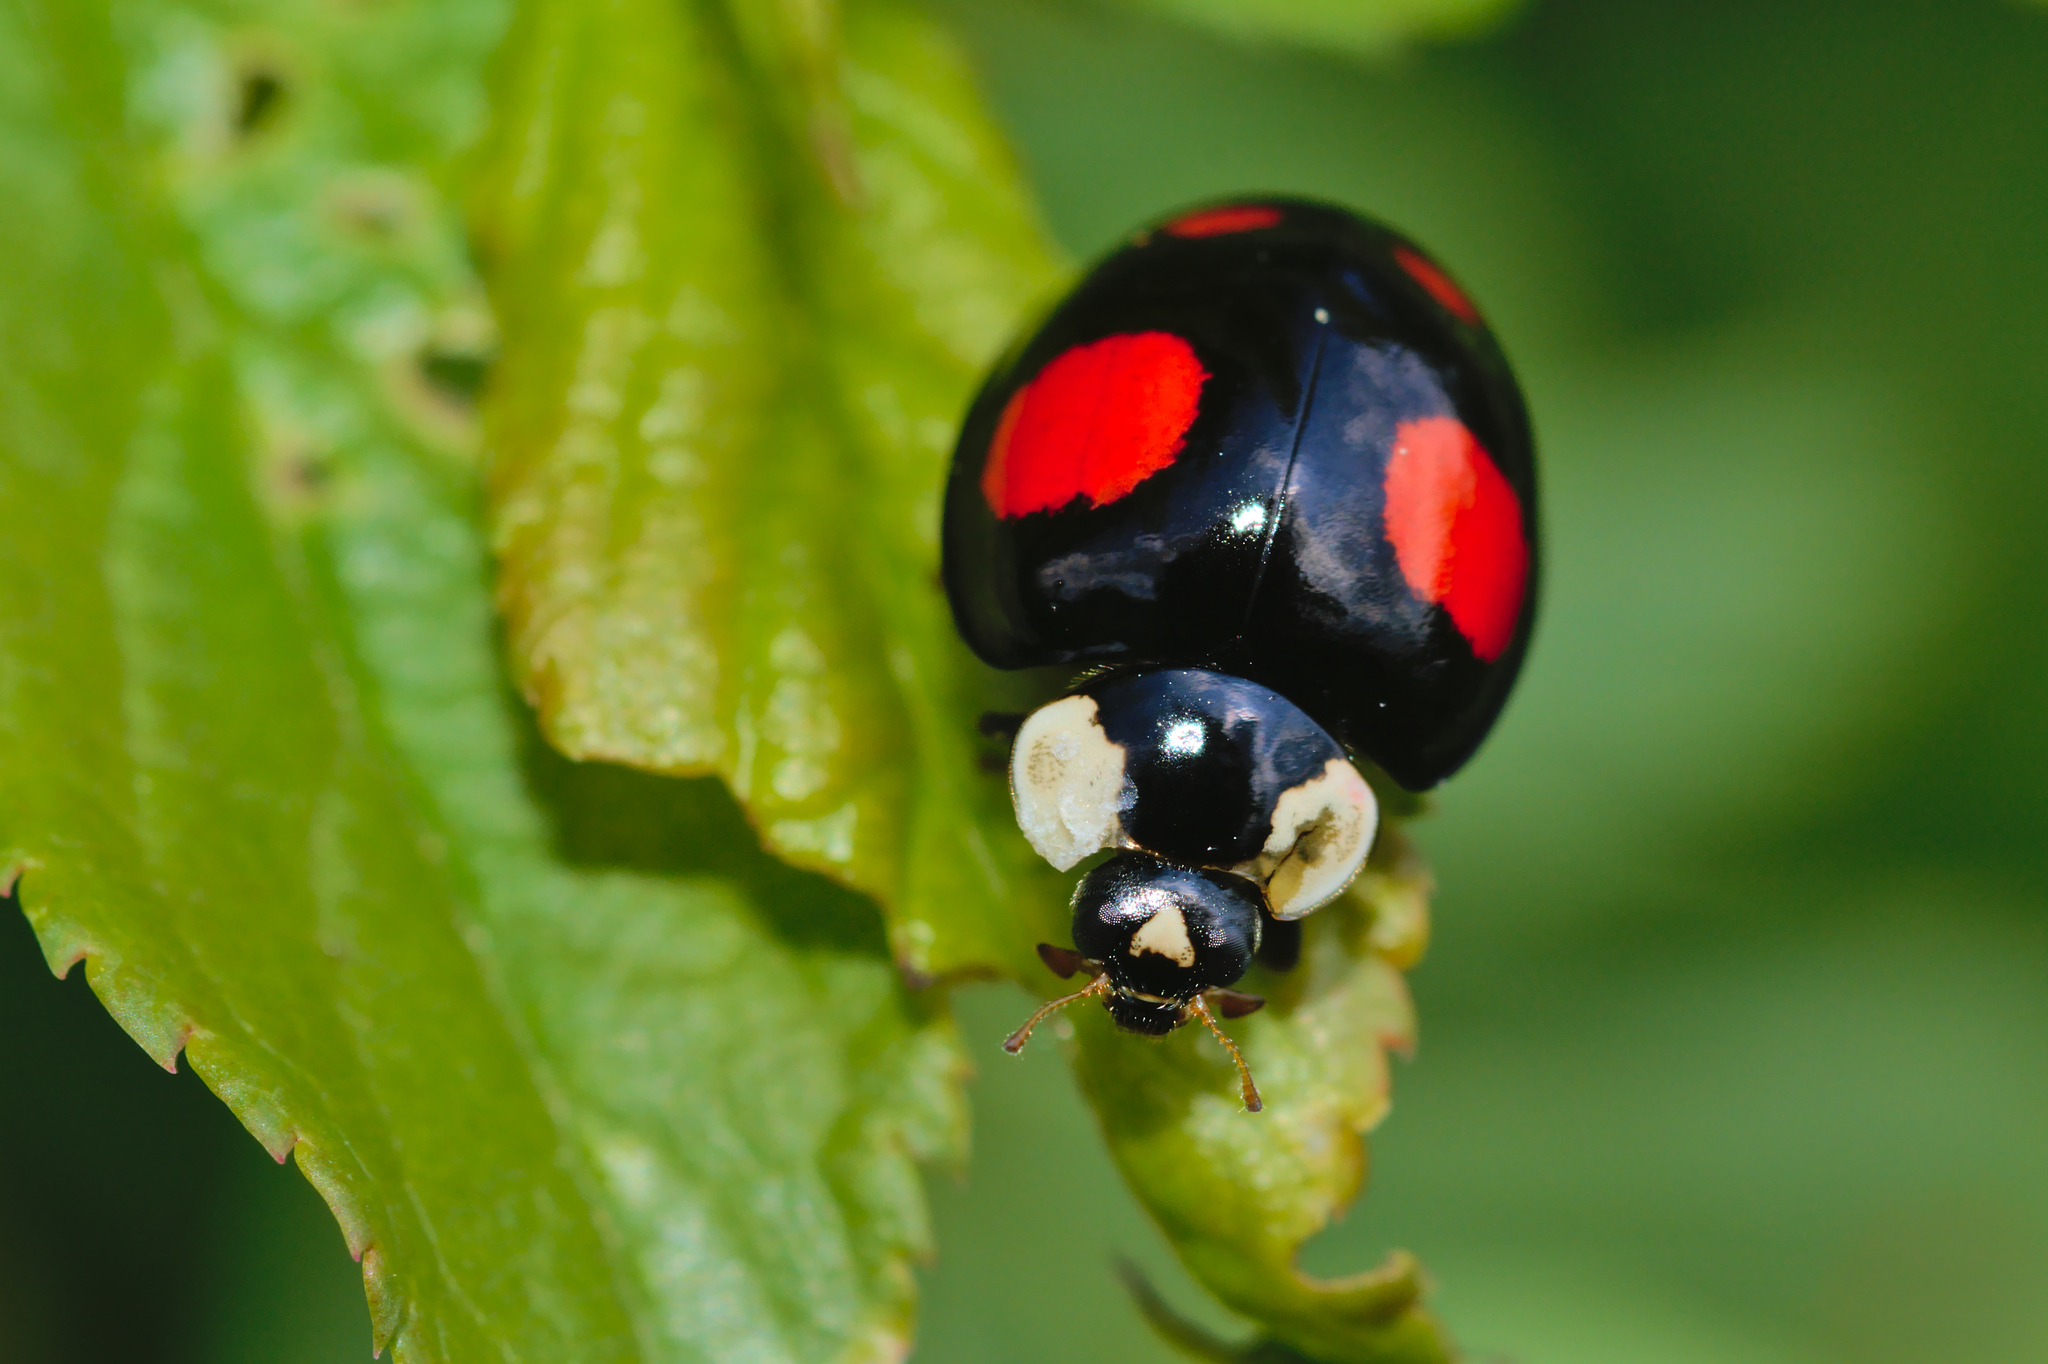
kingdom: Animalia
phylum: Arthropoda
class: Insecta
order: Coleoptera
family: Coccinellidae
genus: Harmonia
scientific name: Harmonia axyridis
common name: Harlequin ladybird
